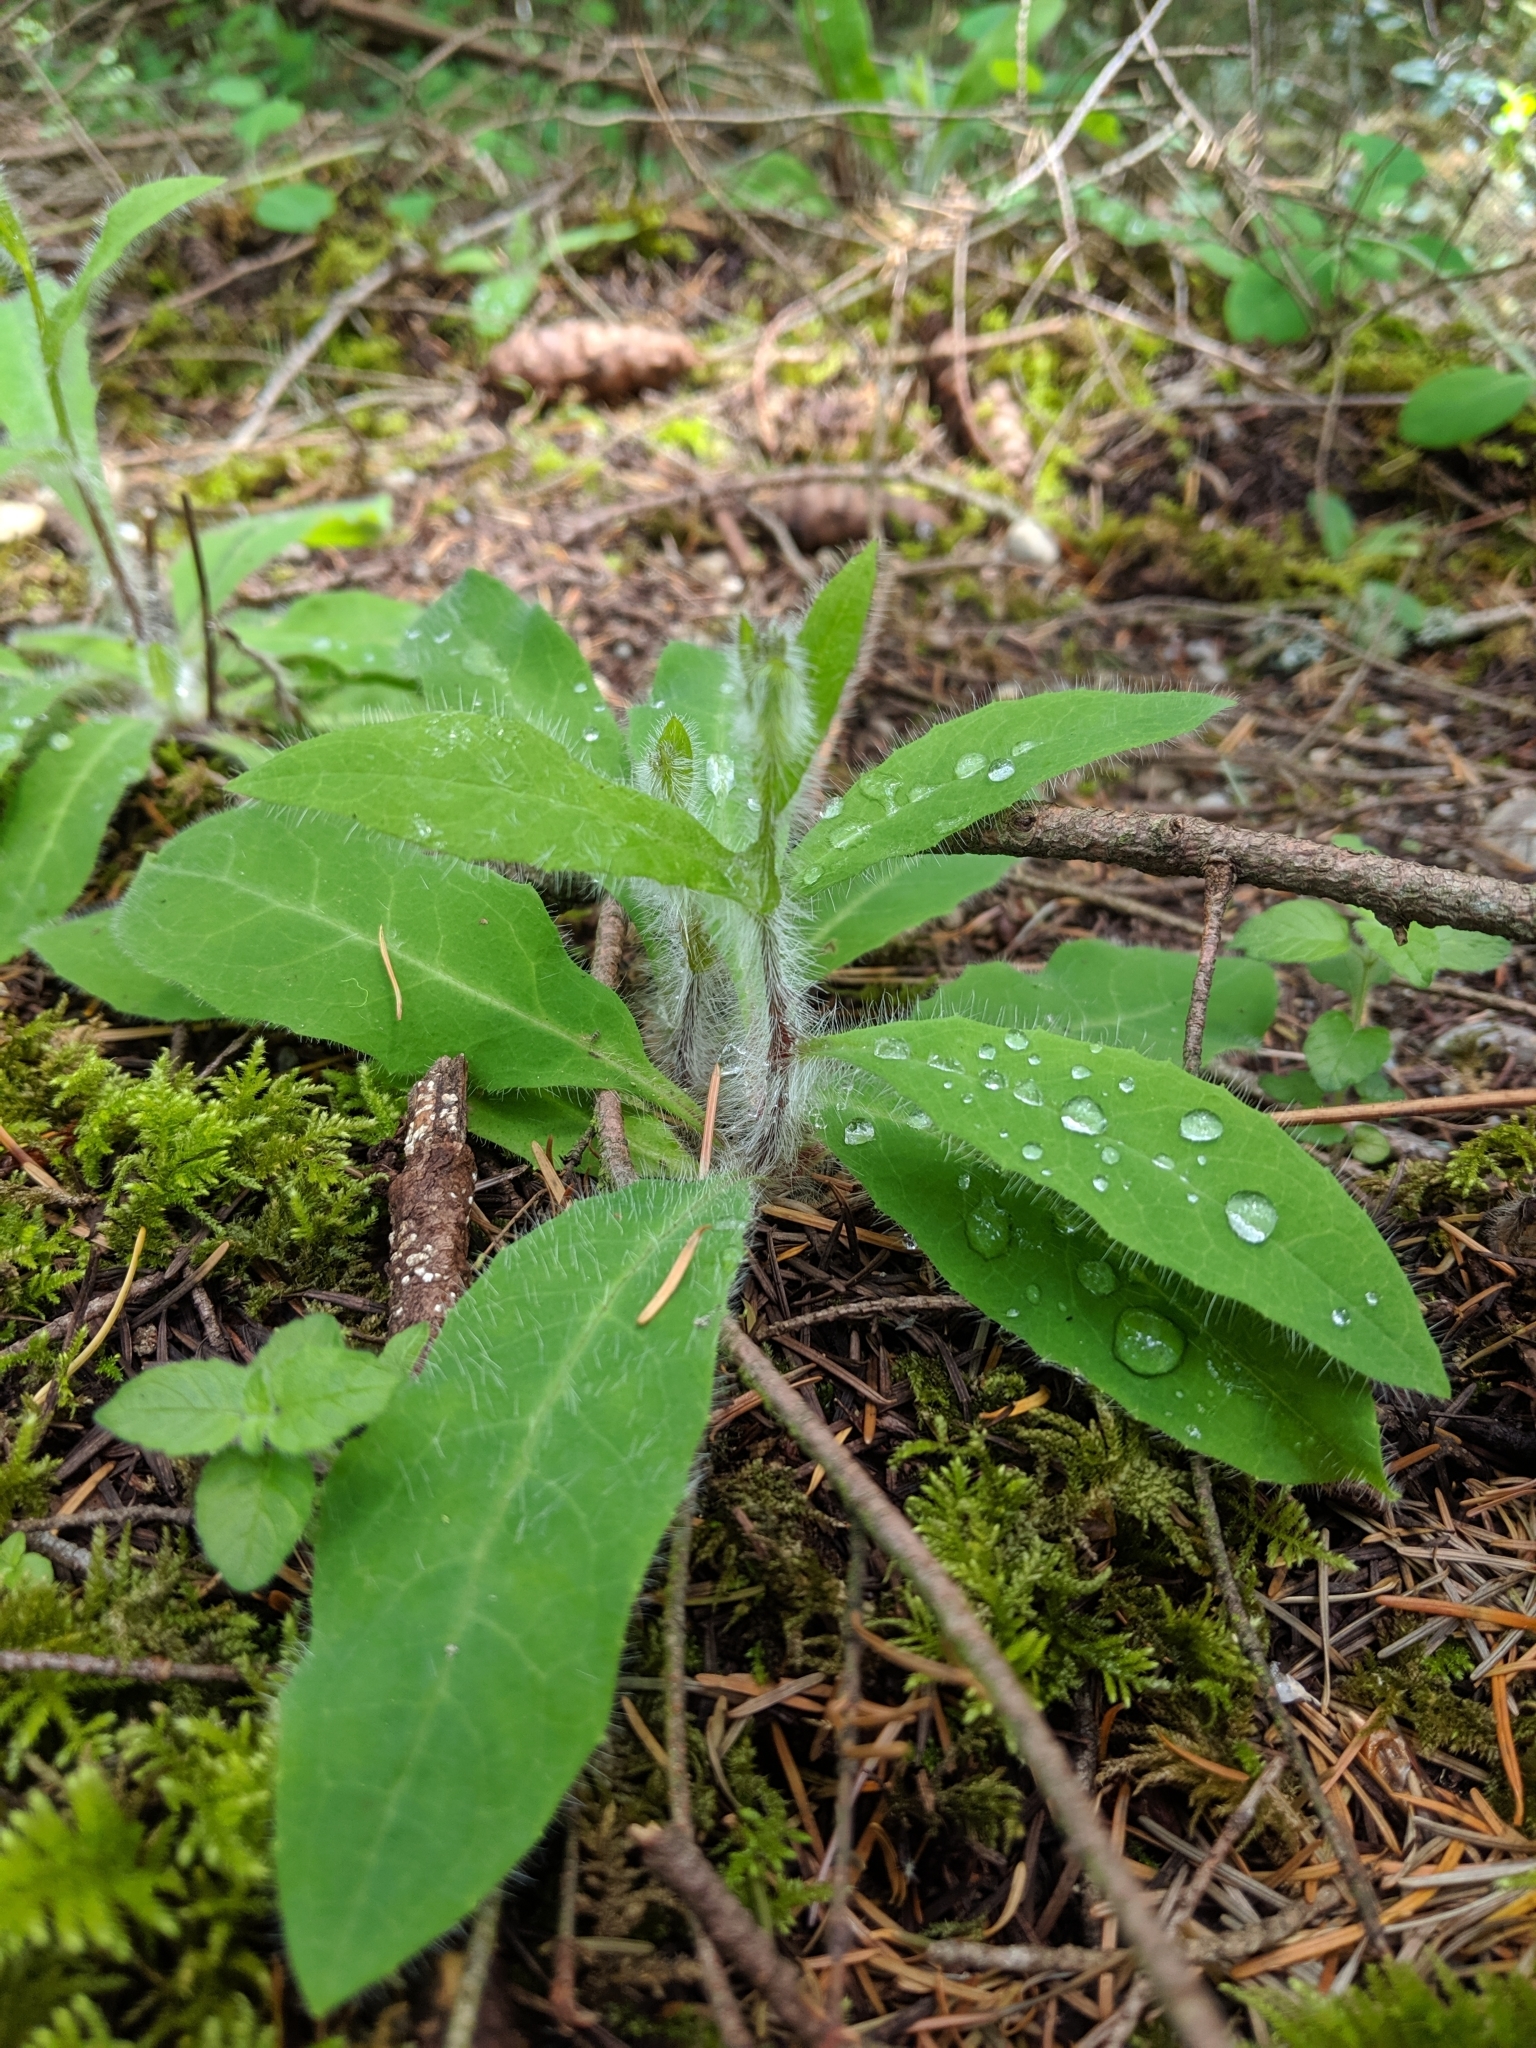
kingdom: Plantae
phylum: Tracheophyta
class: Magnoliopsida
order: Asterales
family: Asteraceae
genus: Hieracium
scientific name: Hieracium albiflorum
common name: White hawkweed
